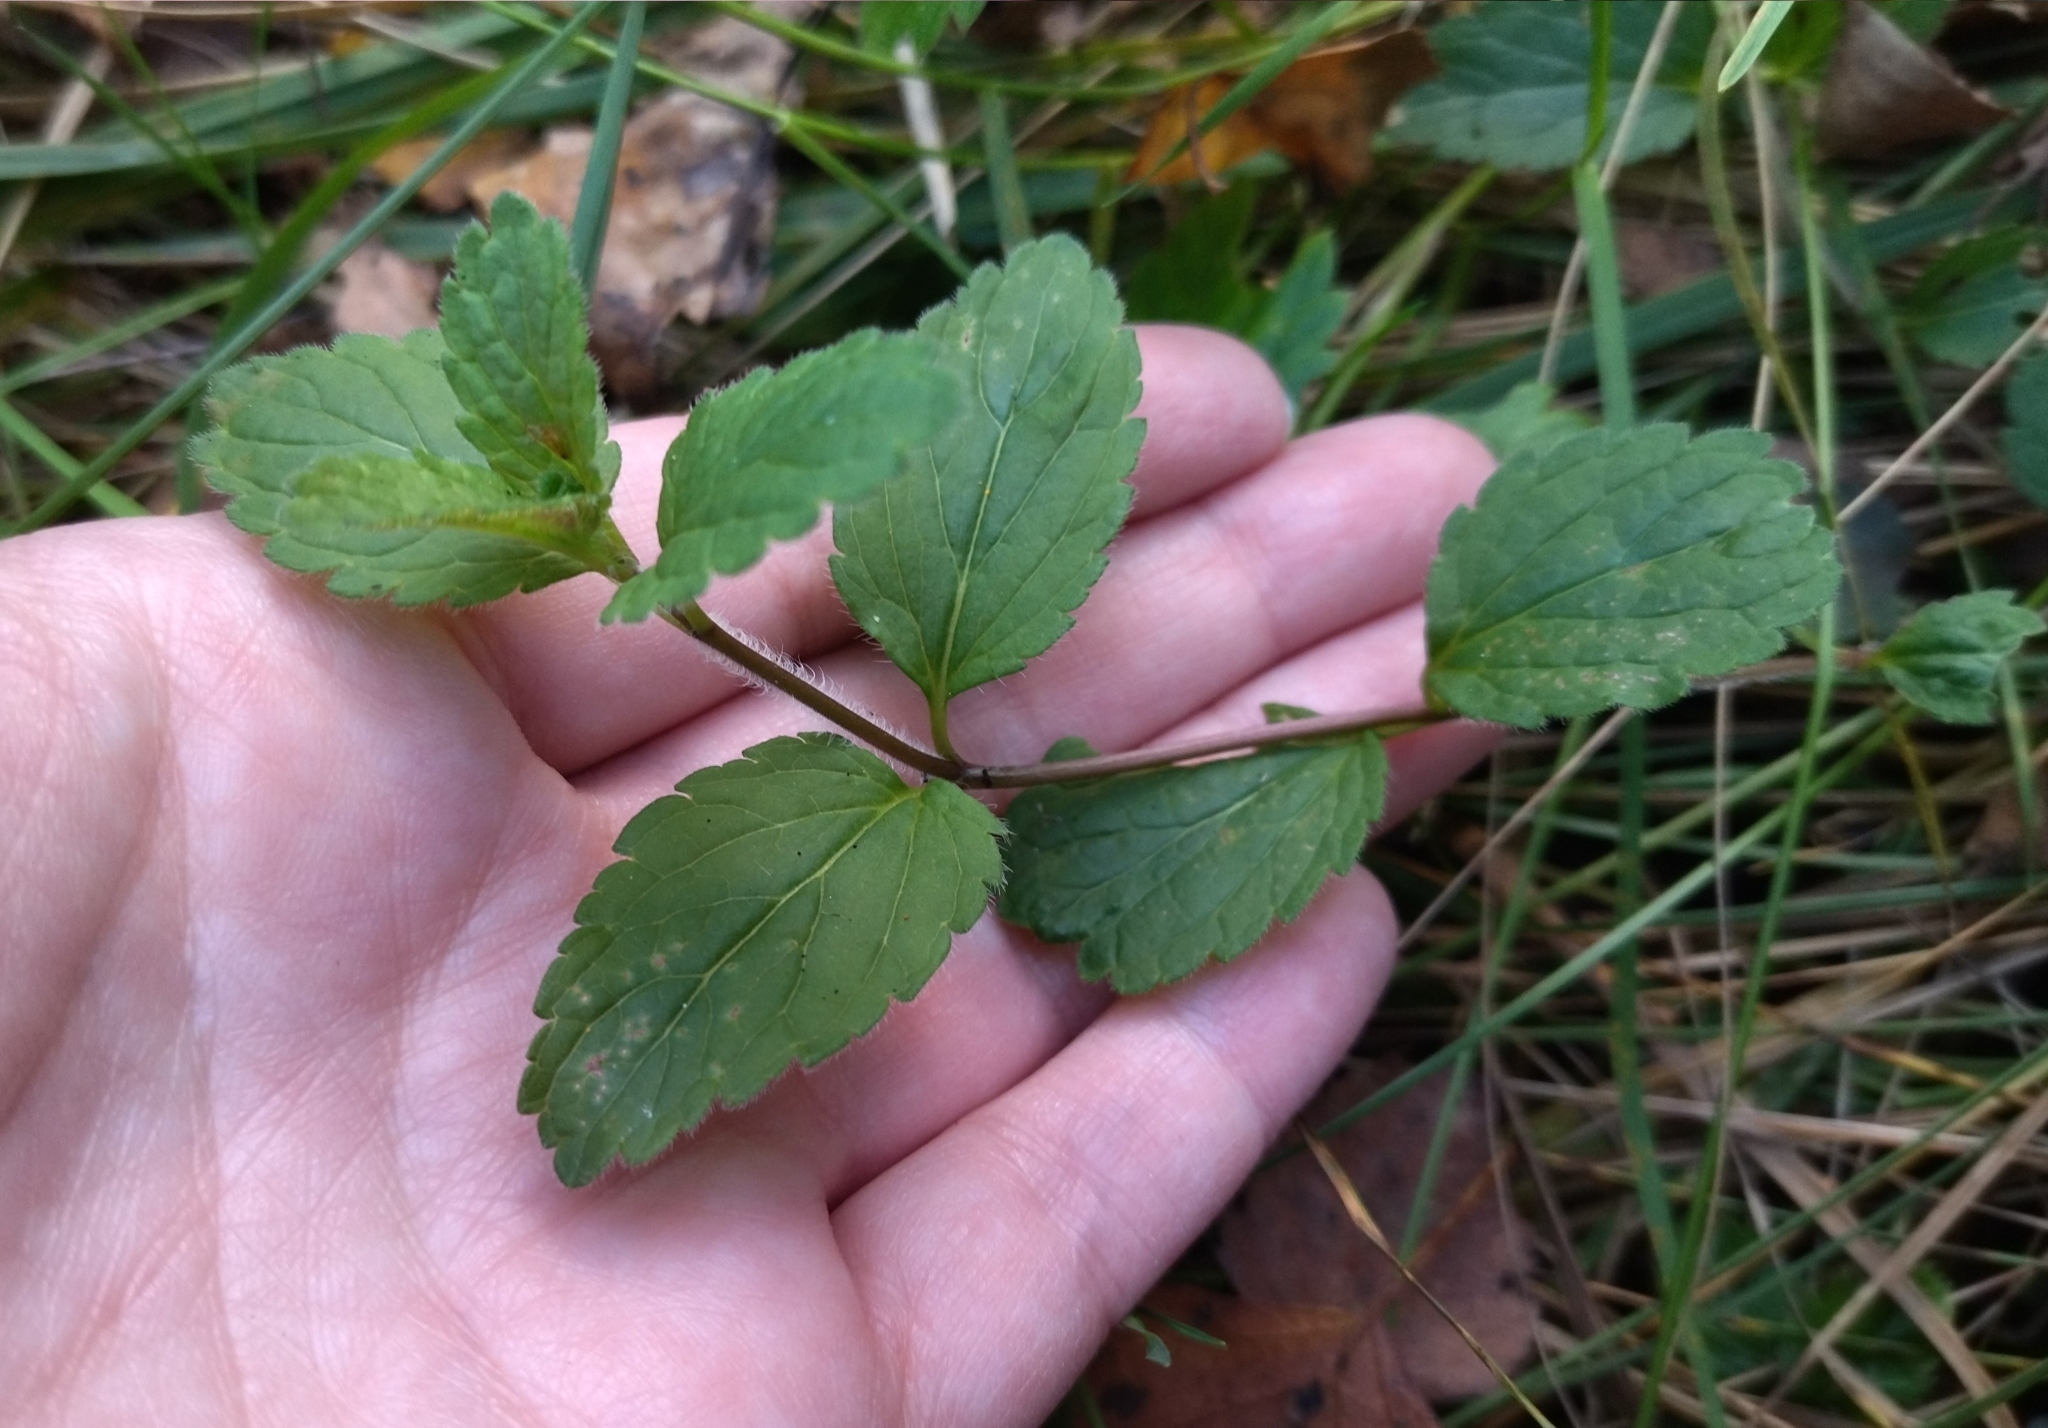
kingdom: Plantae
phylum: Tracheophyta
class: Magnoliopsida
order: Lamiales
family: Plantaginaceae
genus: Veronica
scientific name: Veronica chamaedrys
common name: Germander speedwell
